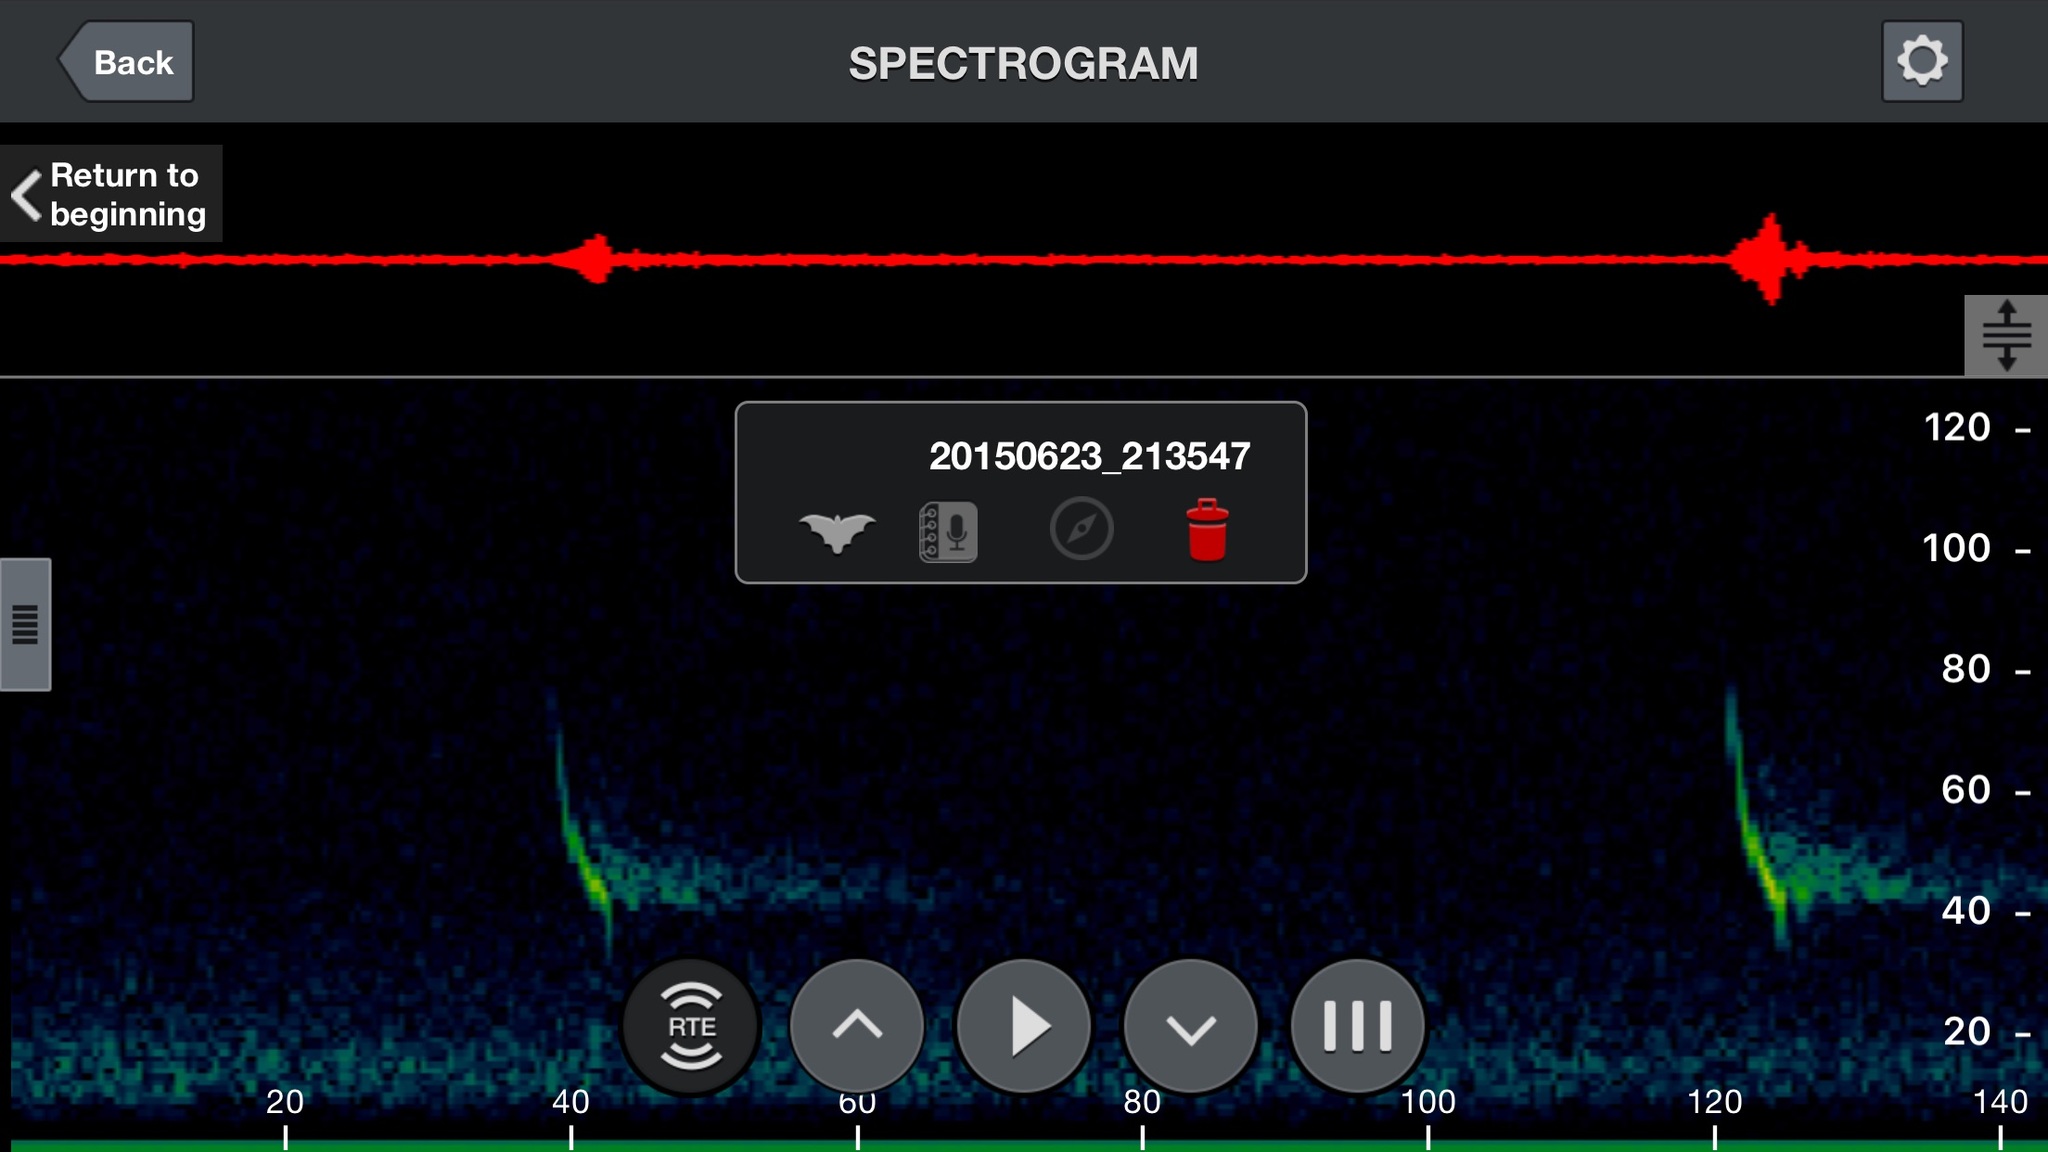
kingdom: Animalia
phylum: Chordata
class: Mammalia
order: Chiroptera
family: Vespertilionidae
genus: Myotis
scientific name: Myotis lucifugus
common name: Little brown bat
